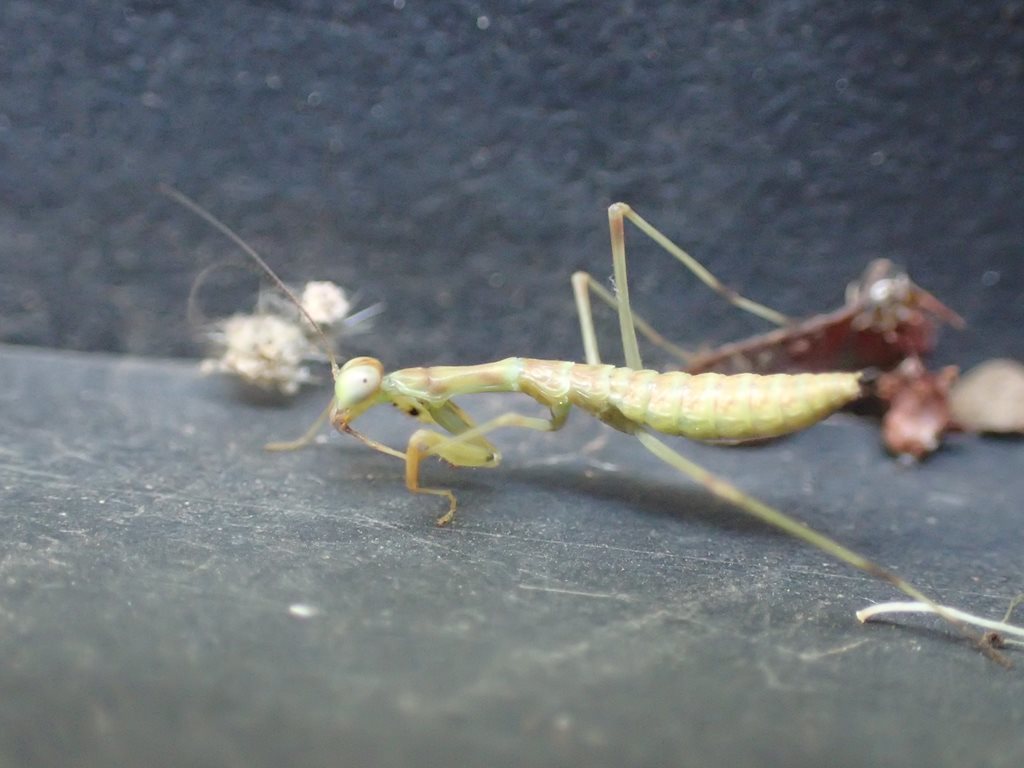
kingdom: Animalia
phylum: Arthropoda
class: Insecta
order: Mantodea
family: Mantidae
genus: Hierodula
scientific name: Hierodula werneri
